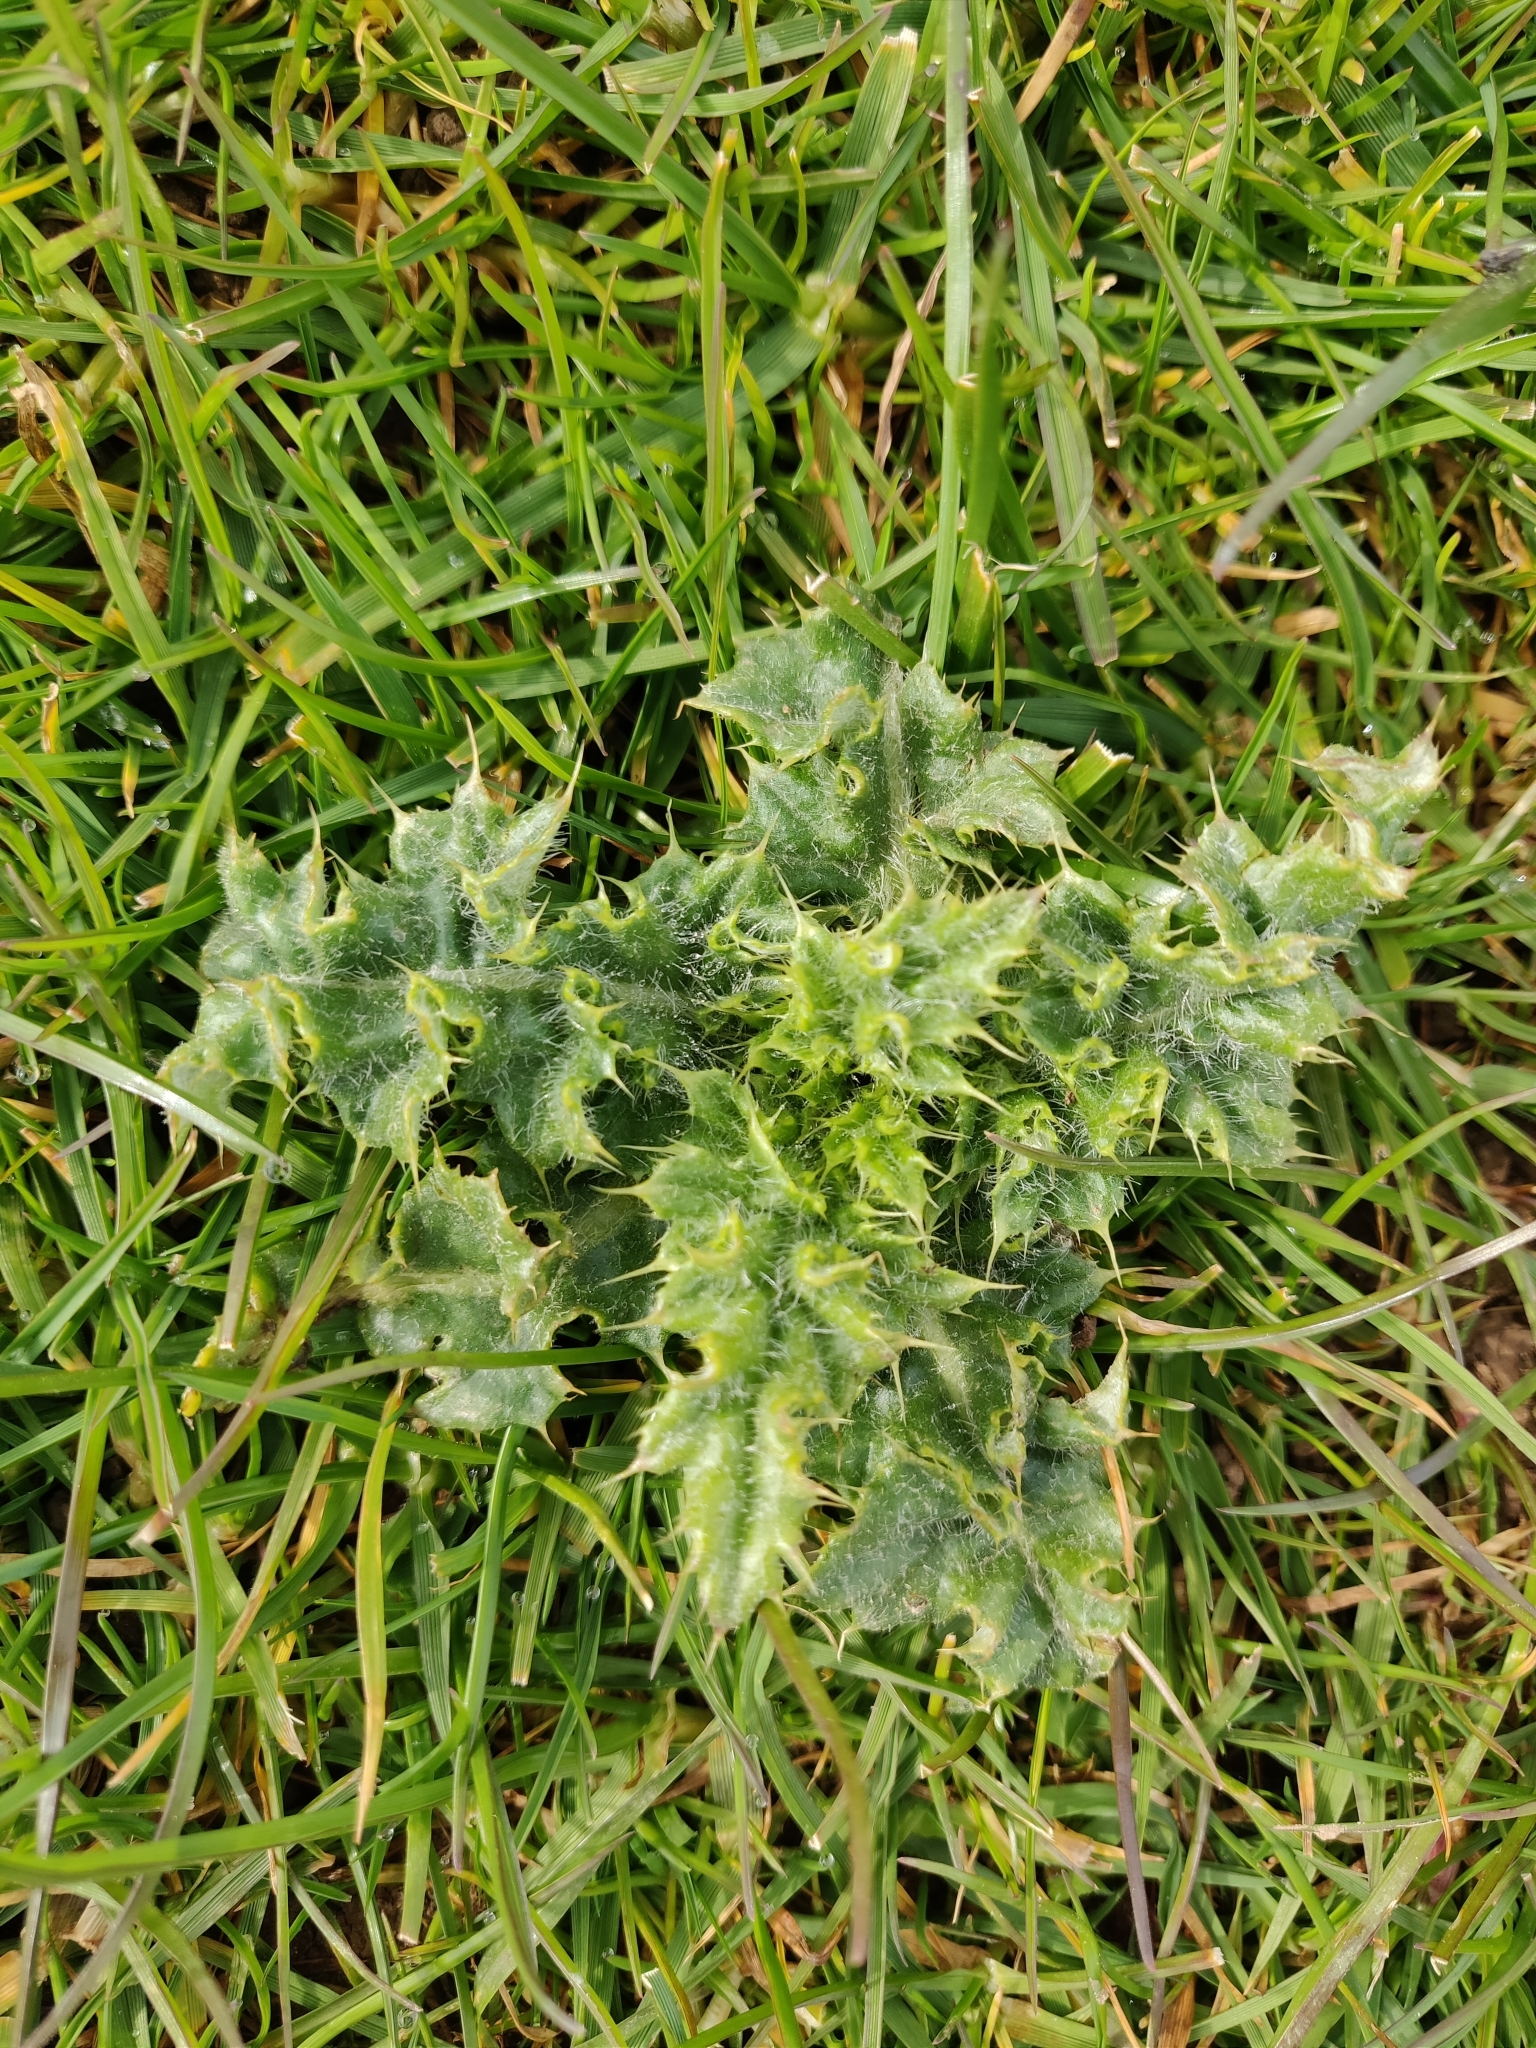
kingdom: Plantae
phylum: Tracheophyta
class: Magnoliopsida
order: Asterales
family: Asteraceae
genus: Cirsium
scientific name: Cirsium arvense
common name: Creeping thistle
